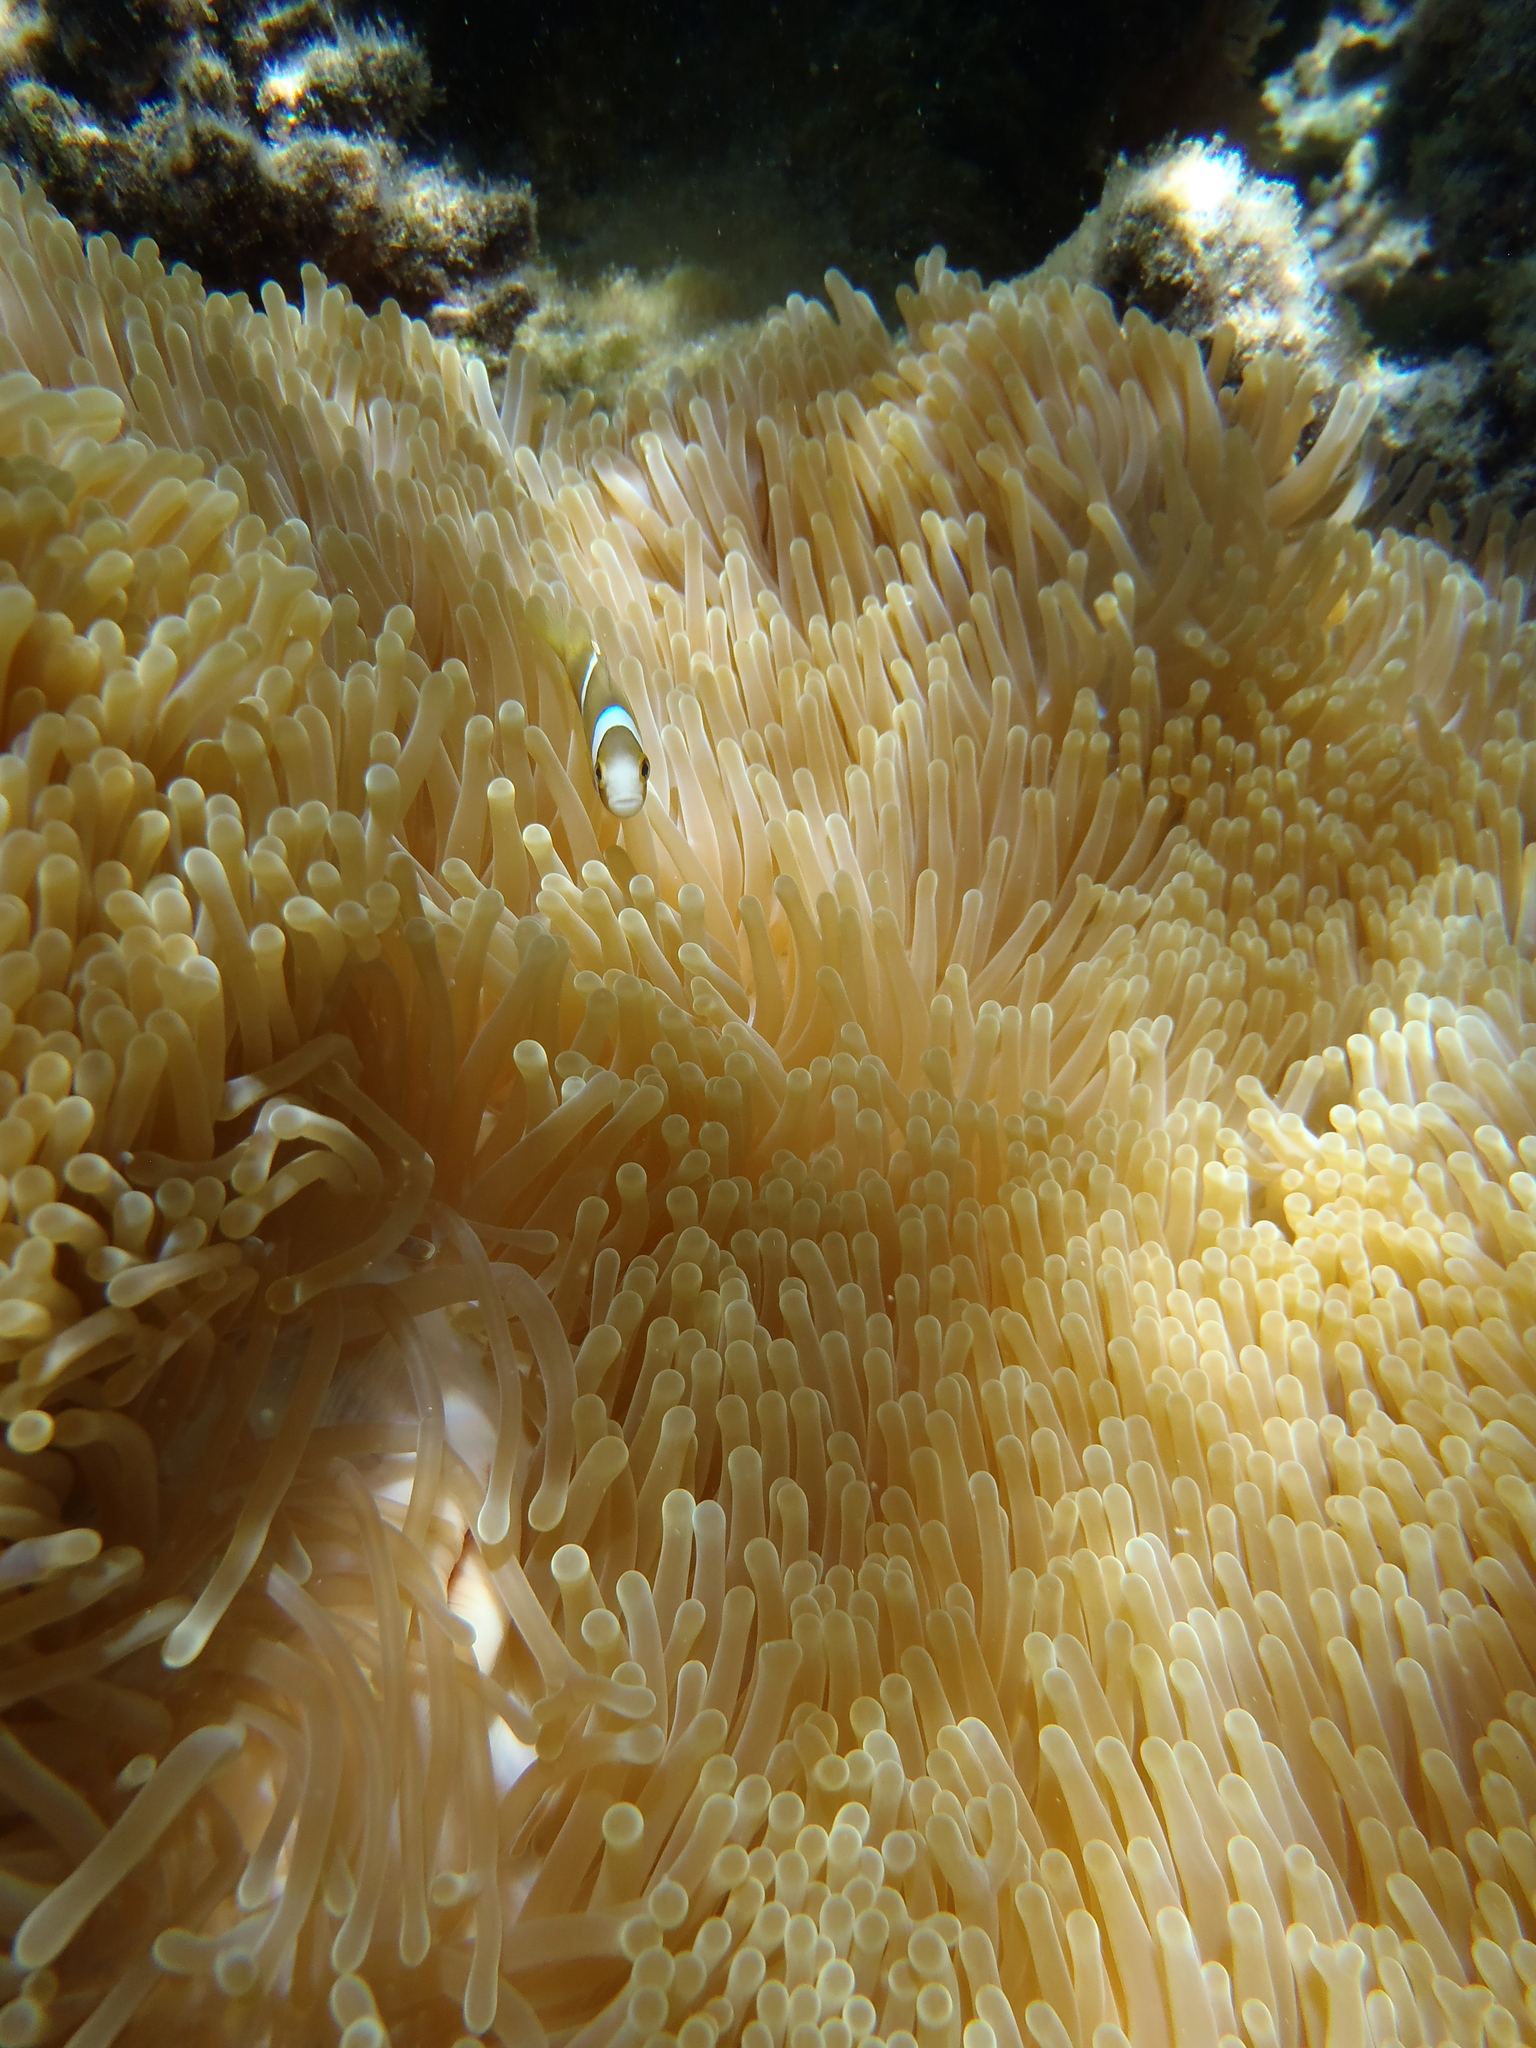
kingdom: Animalia
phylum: Cnidaria
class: Anthozoa
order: Actiniaria
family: Stichodactylidae
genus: Radianthus
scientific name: Radianthus magnifica
